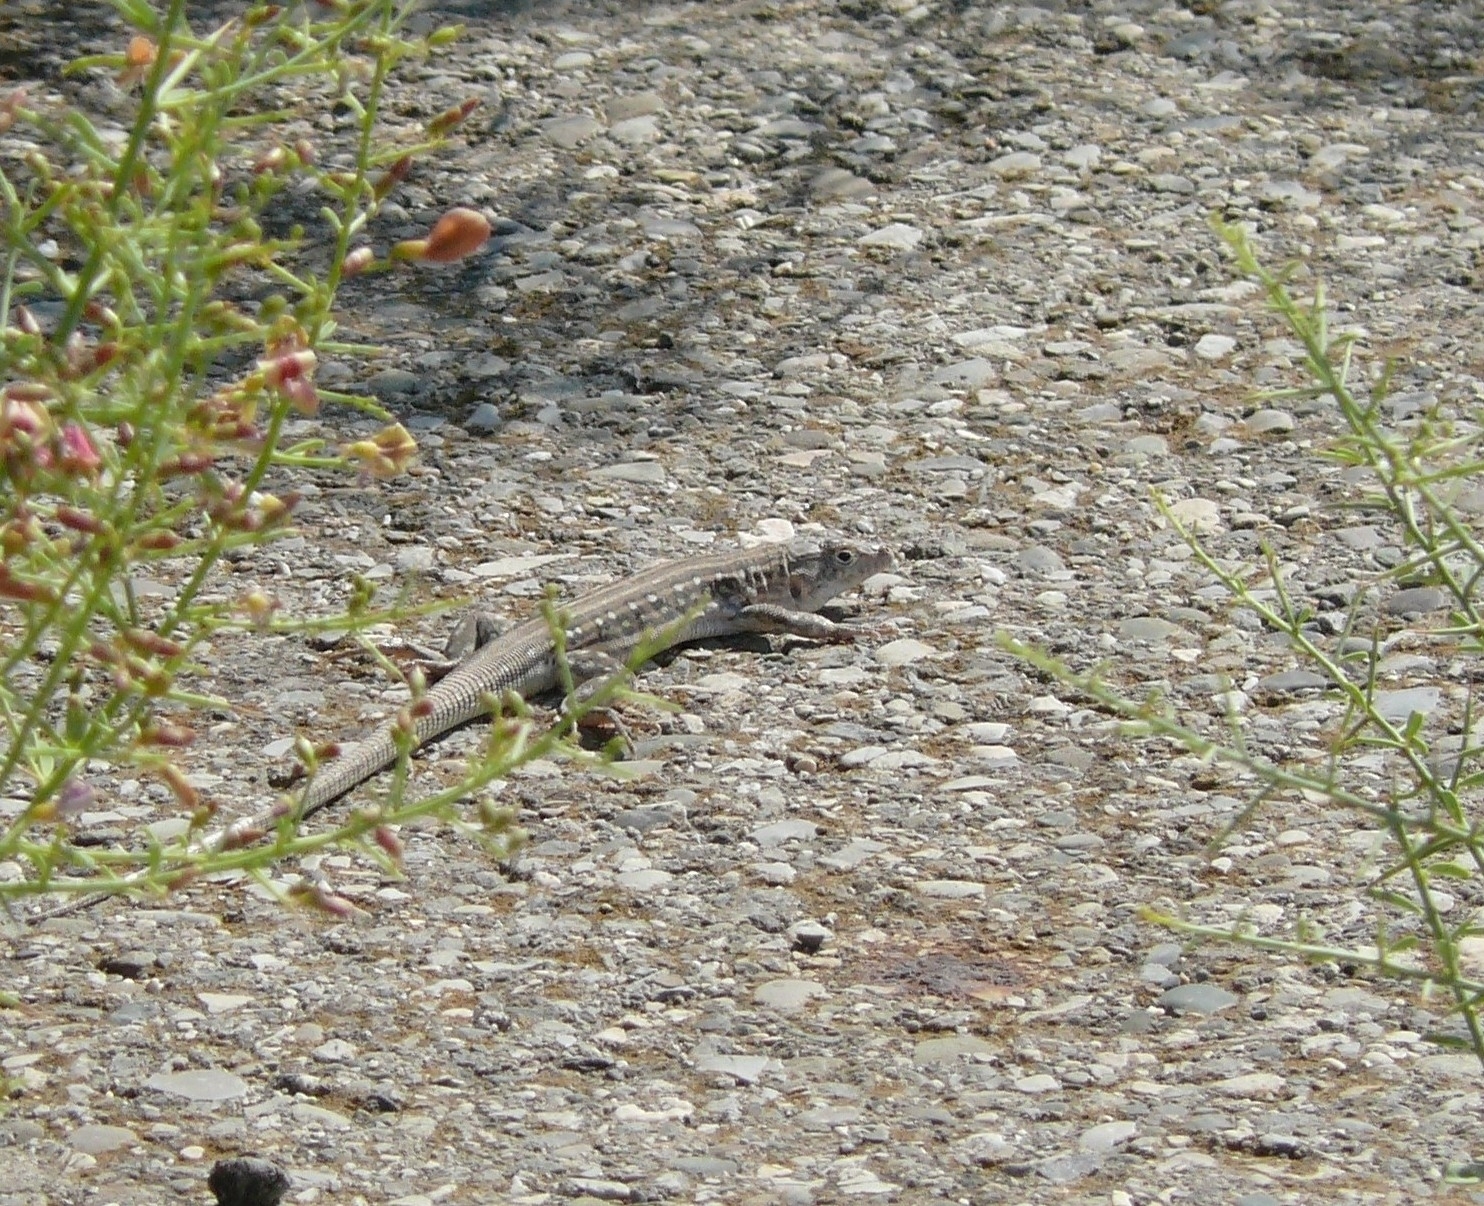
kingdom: Animalia
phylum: Chordata
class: Squamata
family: Lacertidae
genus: Eremias
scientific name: Eremias velox
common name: Central asian racerunner
